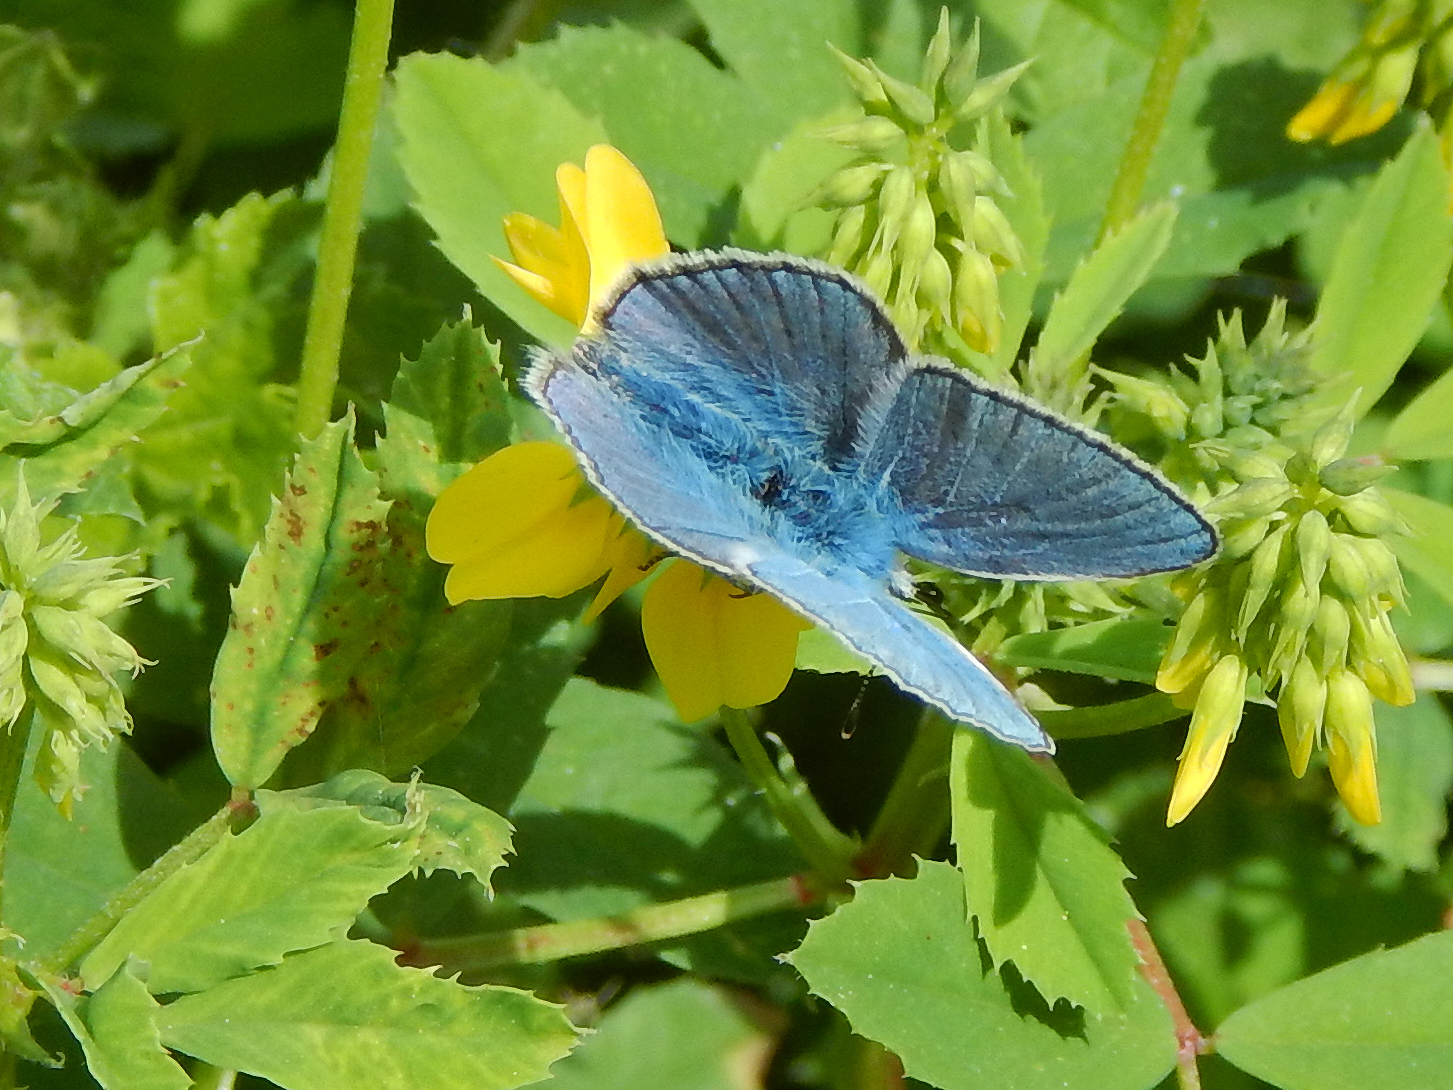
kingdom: Animalia
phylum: Arthropoda
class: Insecta
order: Lepidoptera
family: Lycaenidae
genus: Polyommatus
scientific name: Polyommatus thersites
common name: Chapman's blue
